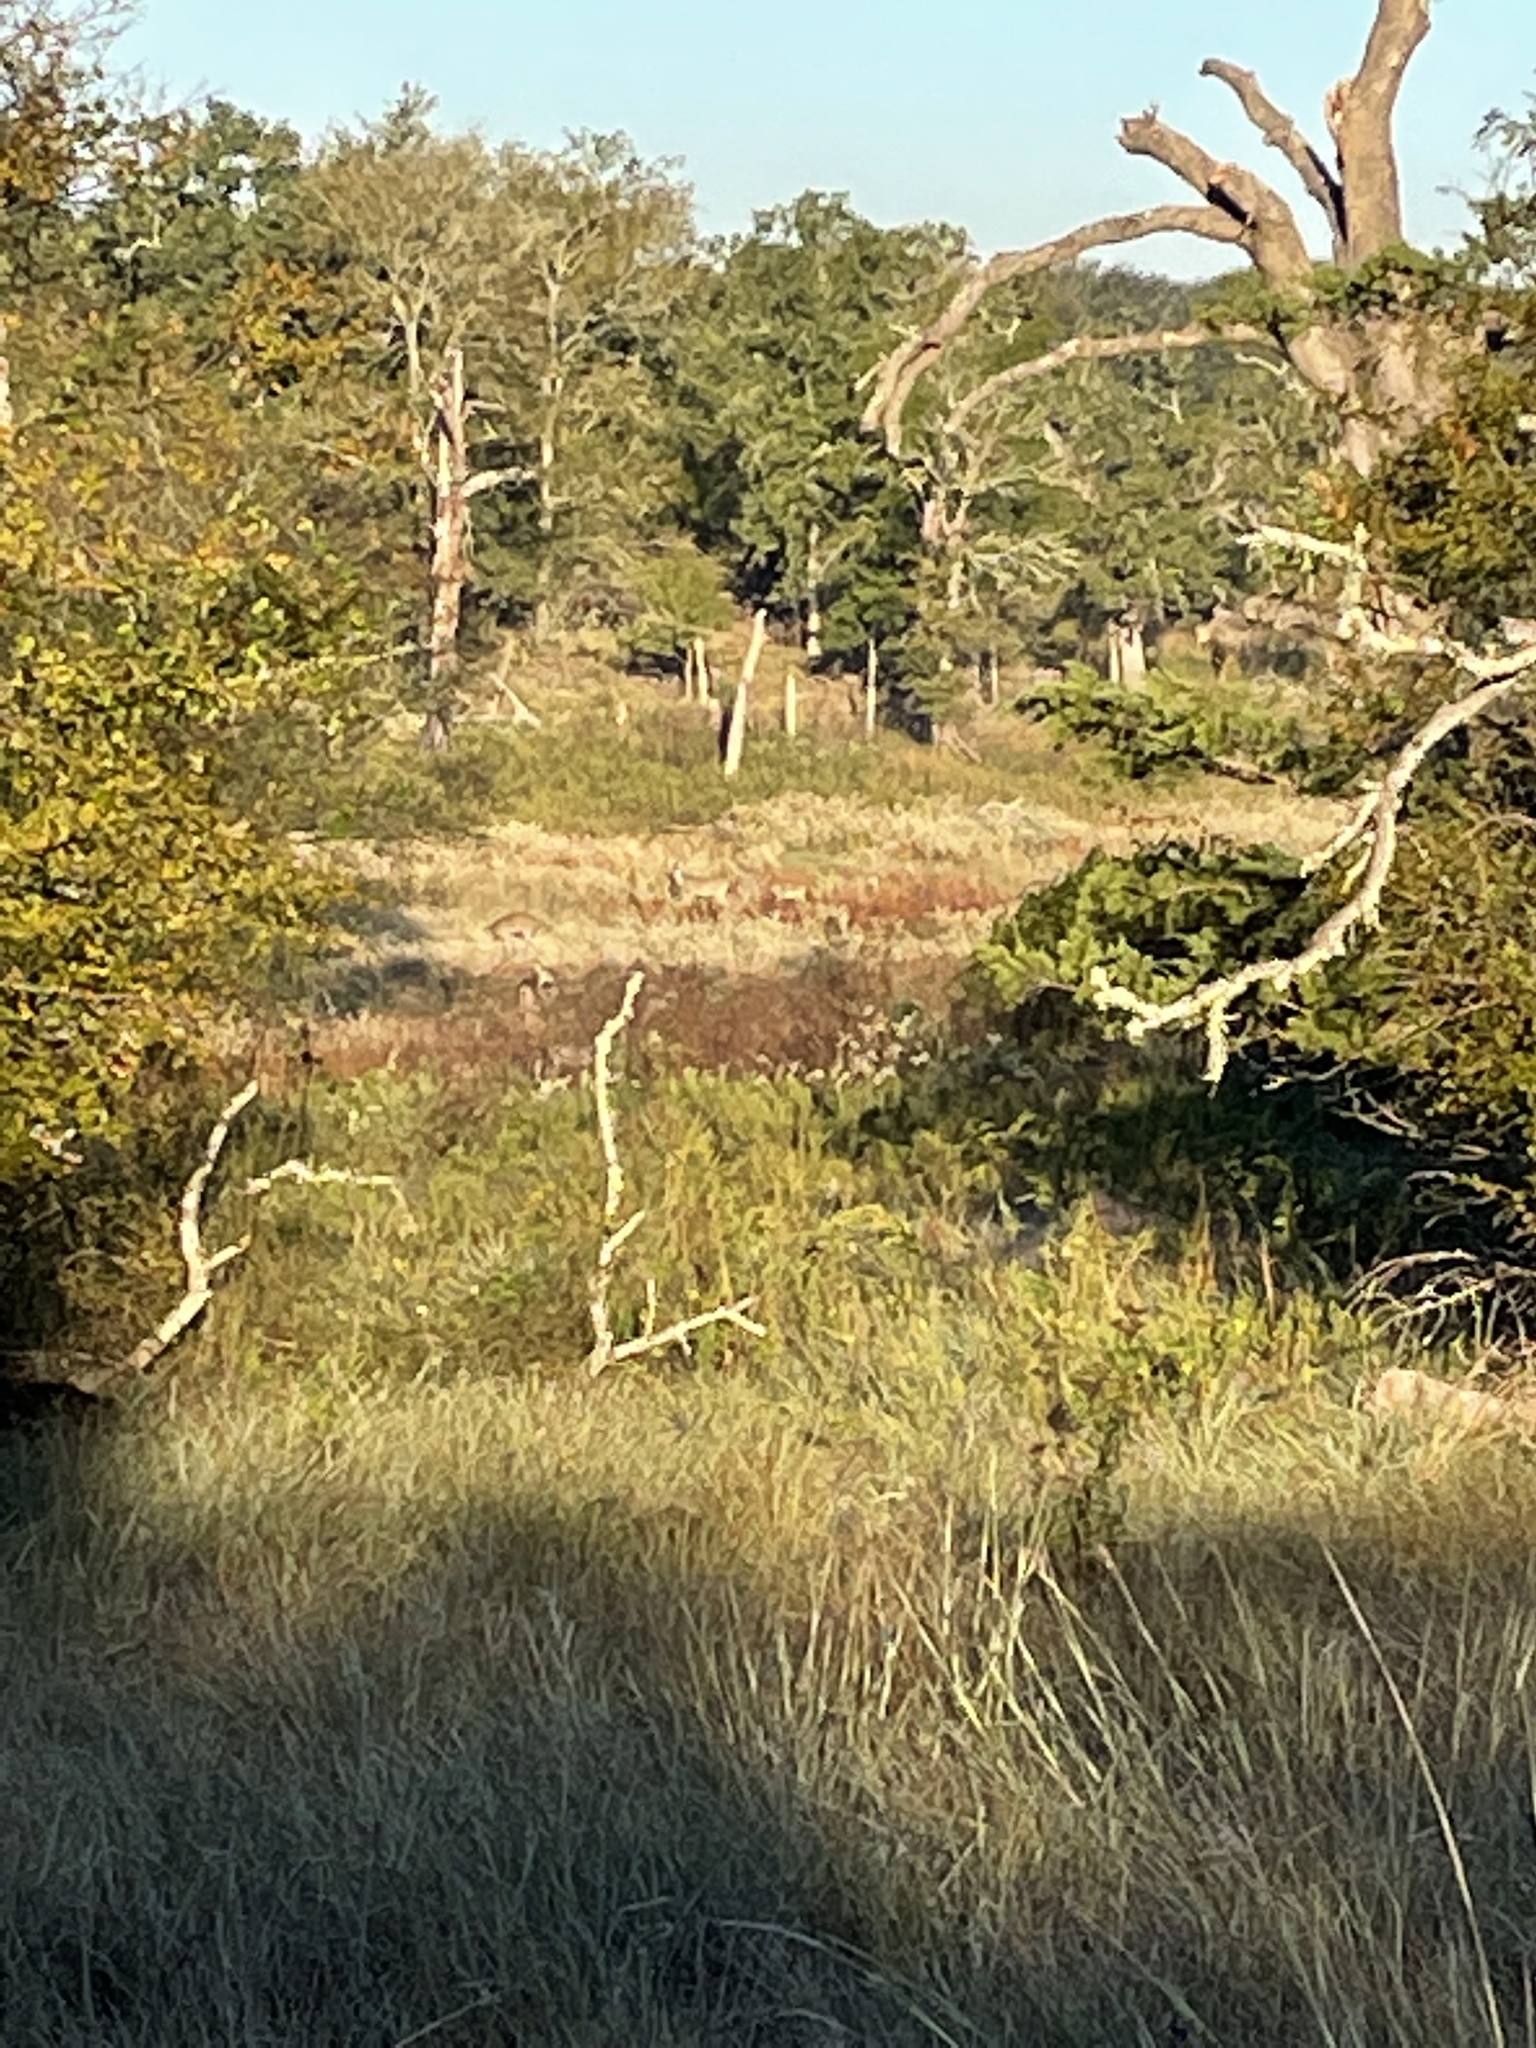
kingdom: Animalia
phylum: Chordata
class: Mammalia
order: Artiodactyla
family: Cervidae
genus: Odocoileus
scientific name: Odocoileus virginianus
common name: White-tailed deer
